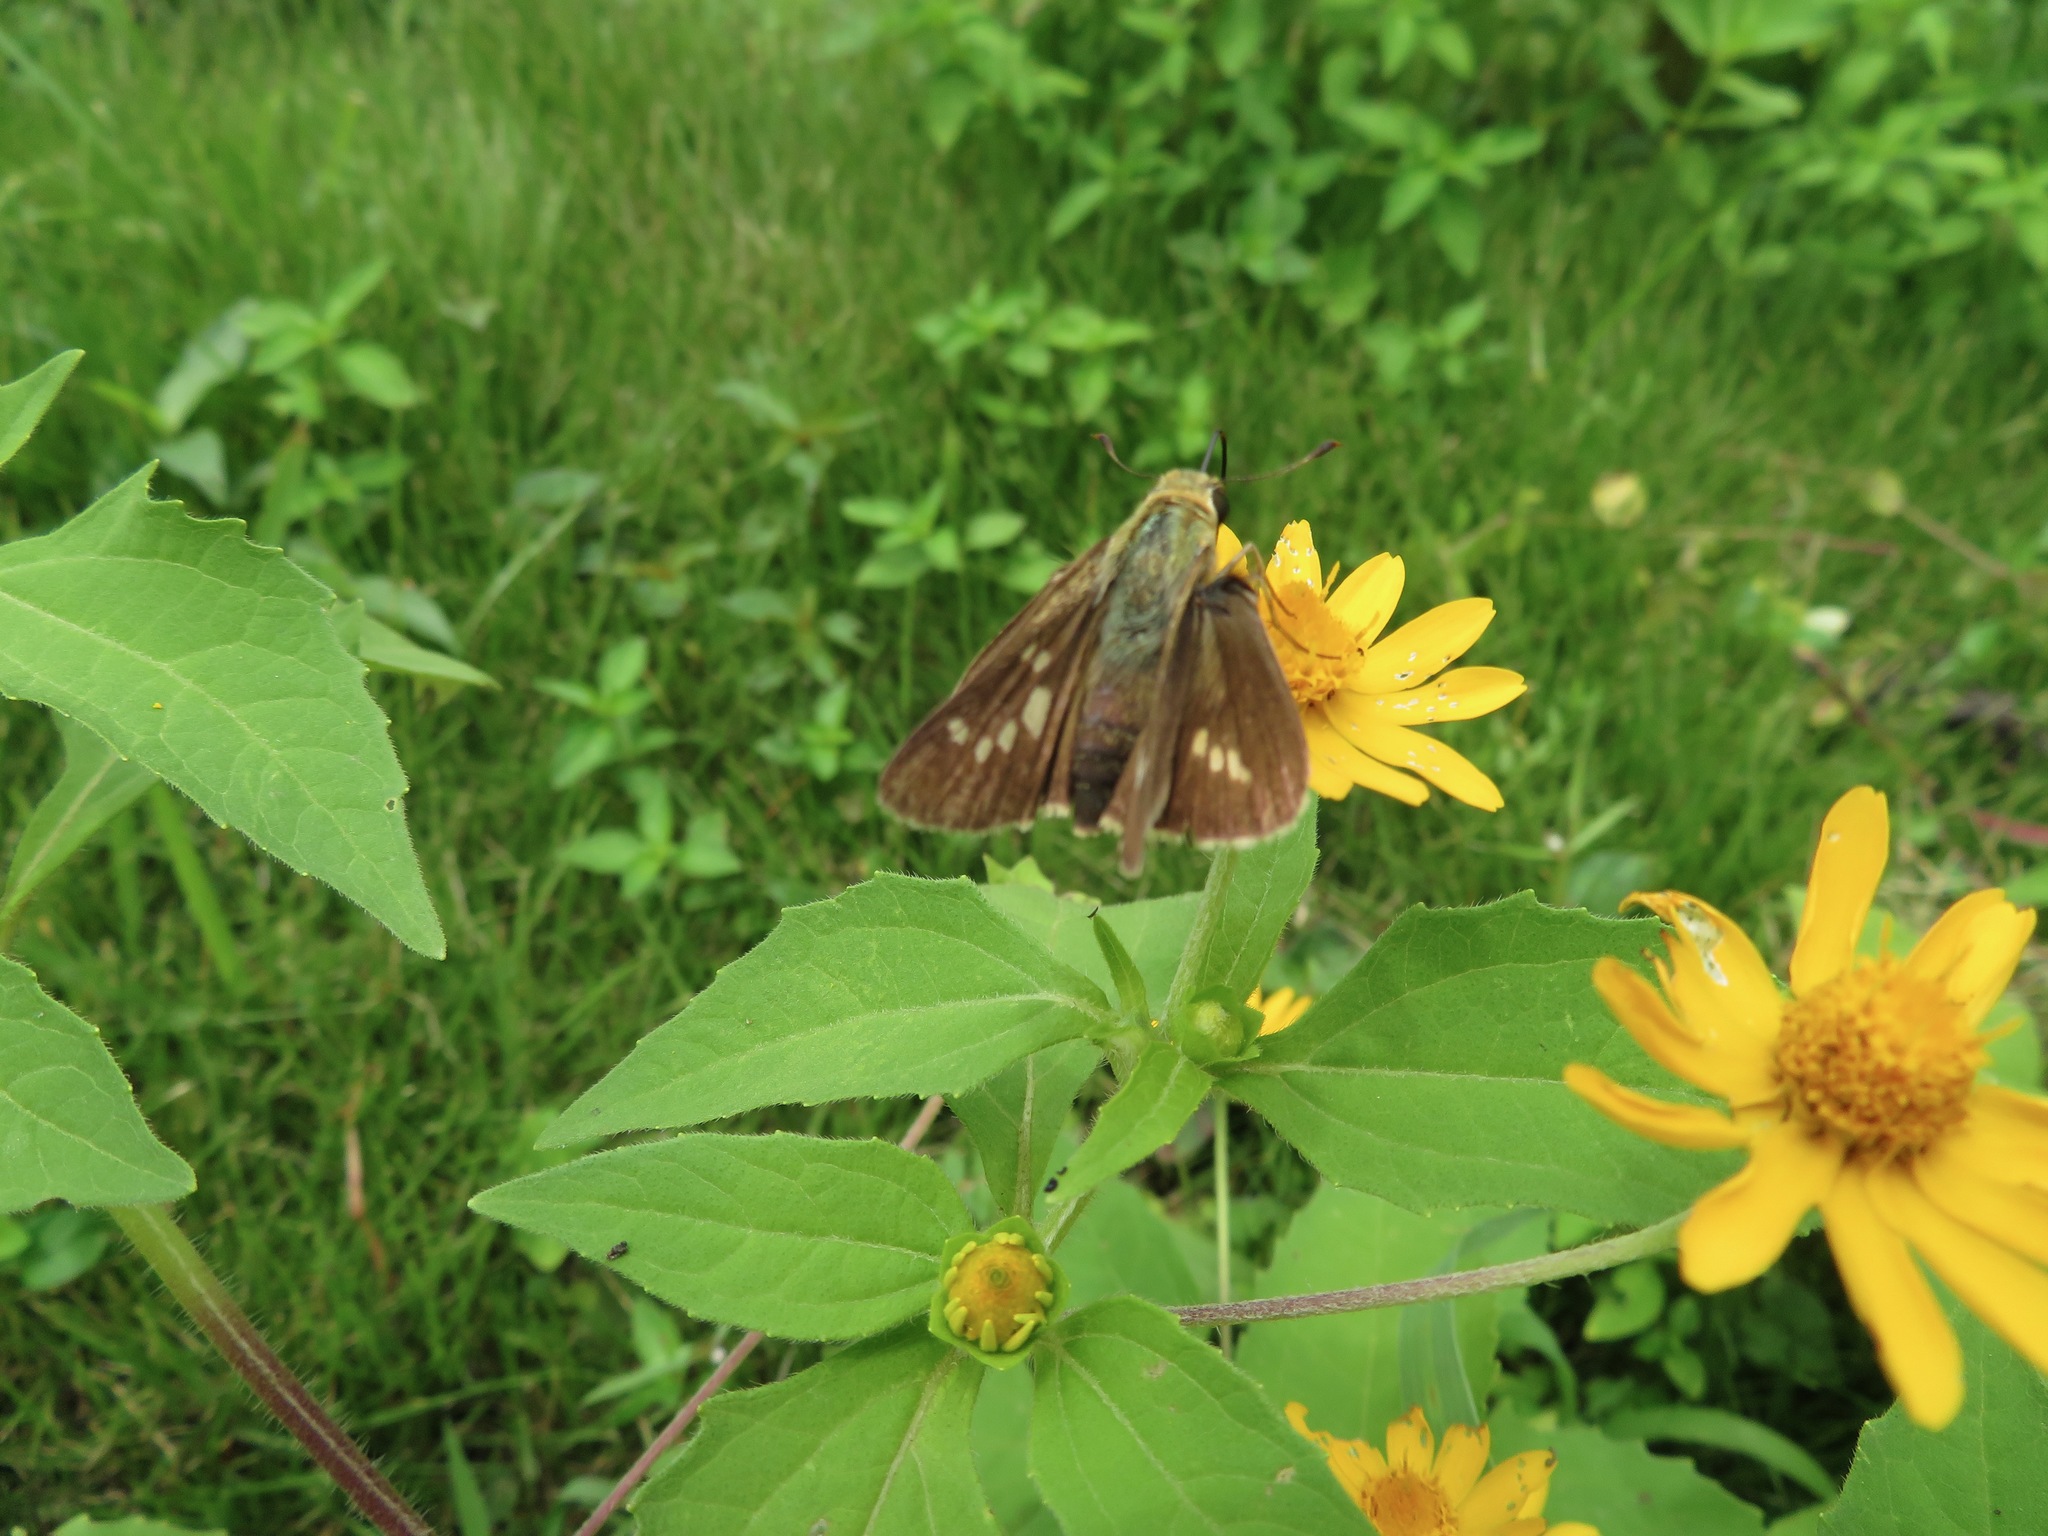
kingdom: Animalia
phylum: Arthropoda
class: Insecta
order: Lepidoptera
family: Hesperiidae
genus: Parnara
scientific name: Parnara guttatus
